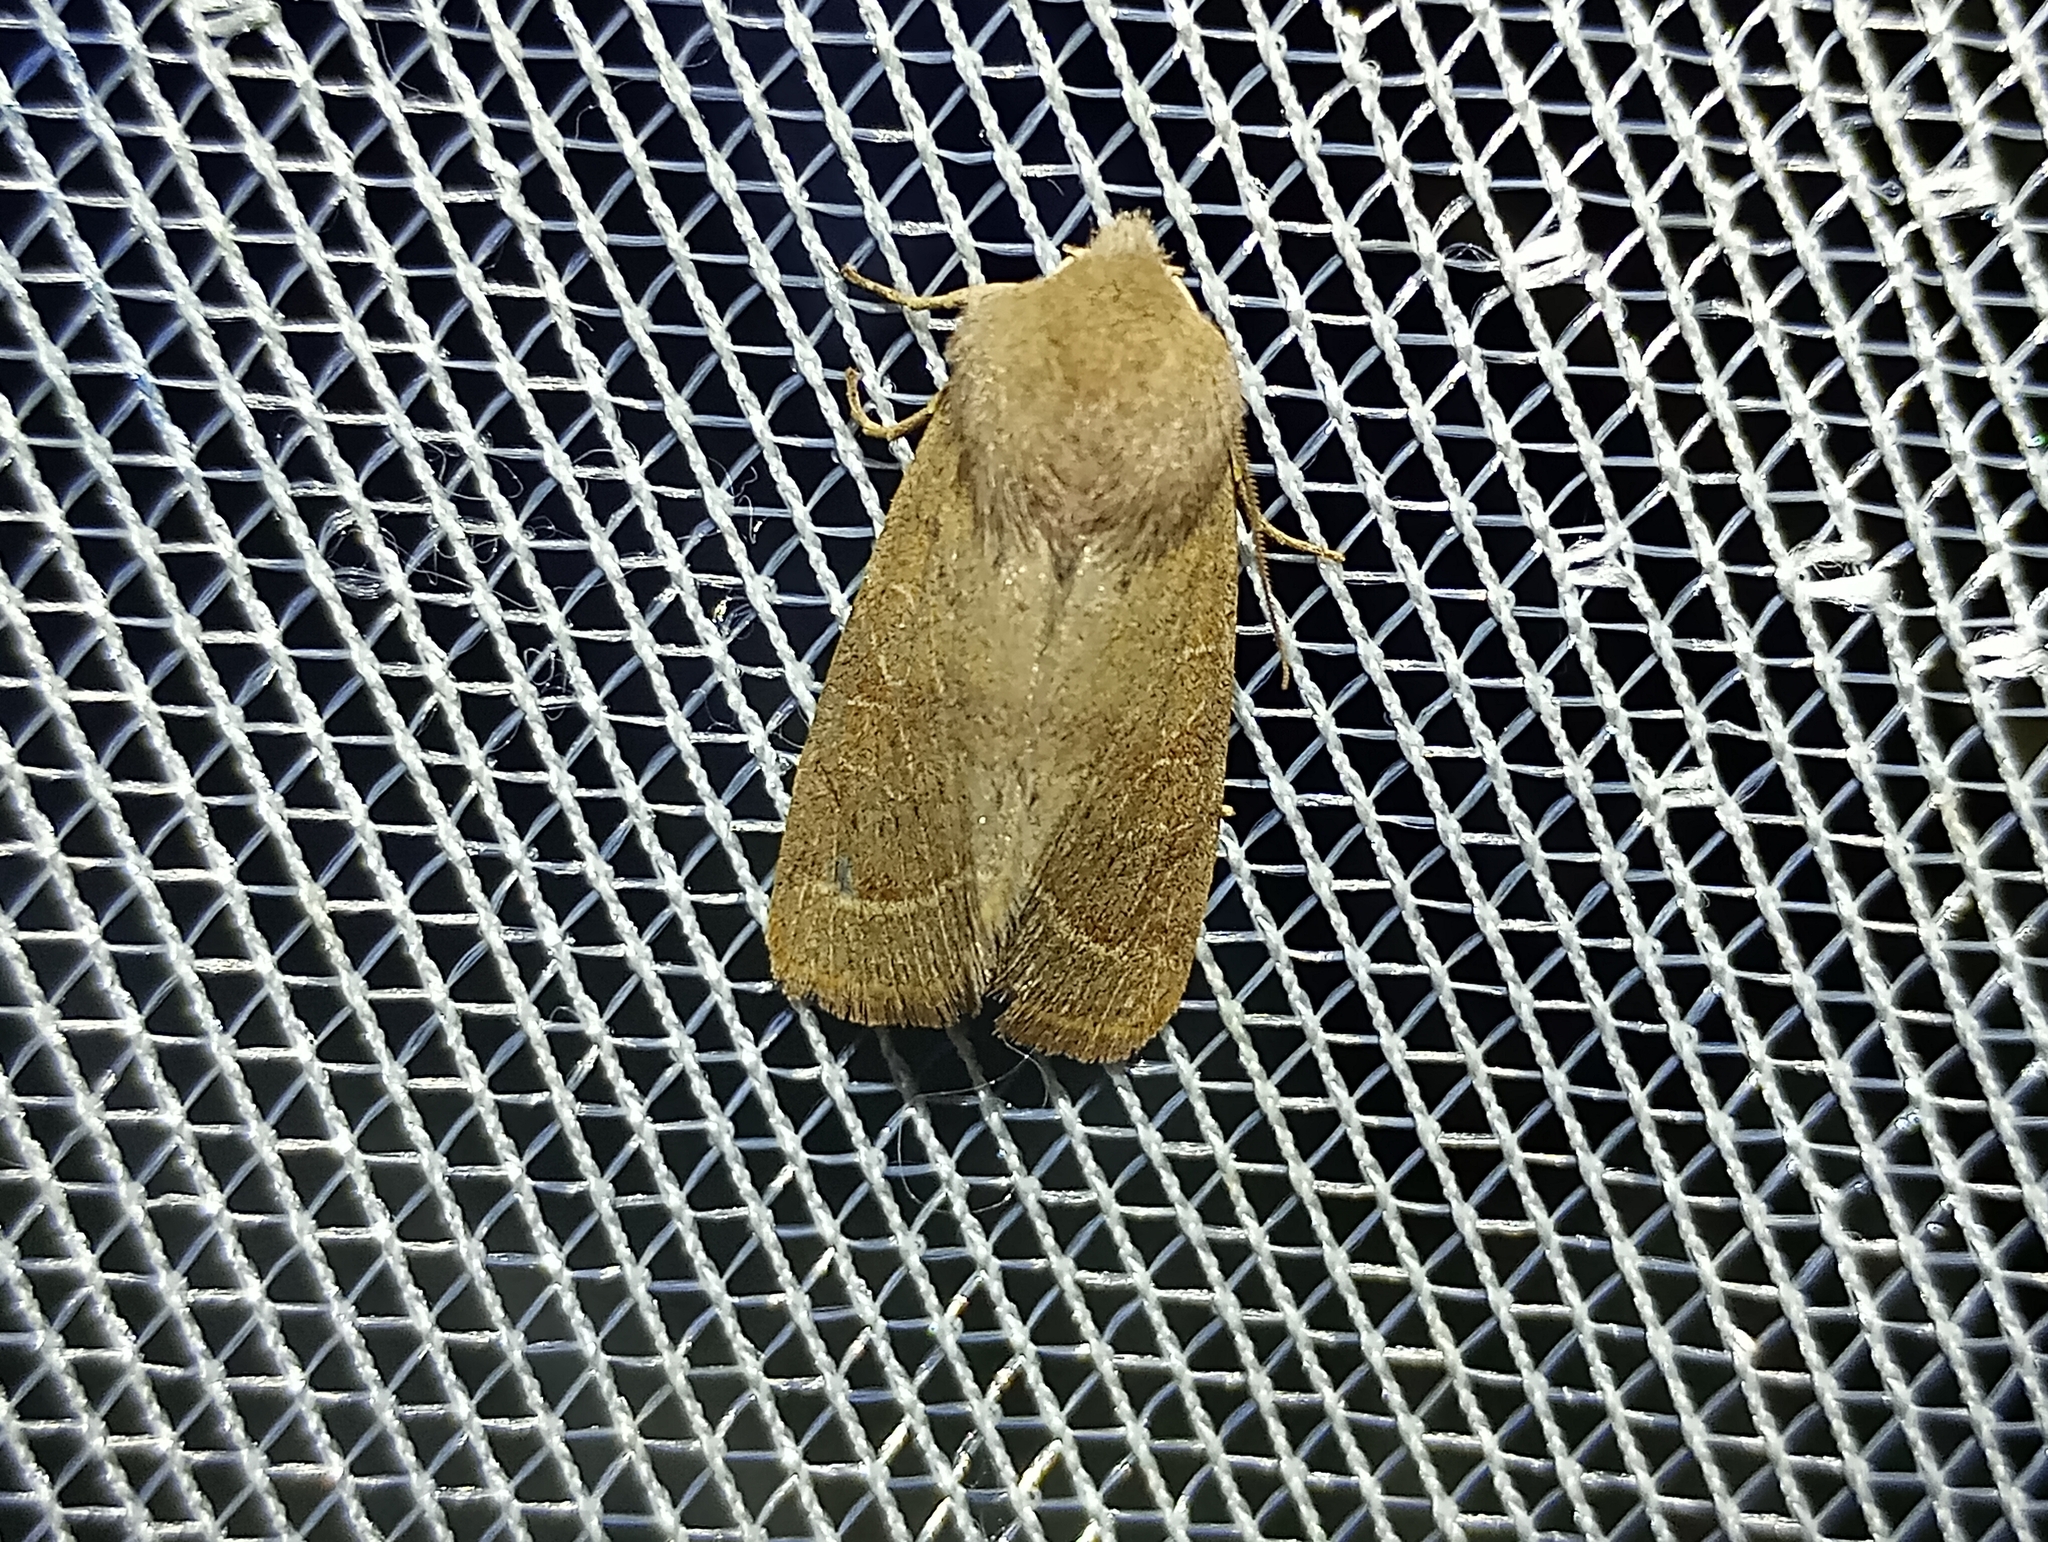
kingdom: Animalia
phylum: Arthropoda
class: Insecta
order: Lepidoptera
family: Noctuidae
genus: Orthosia
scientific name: Orthosia cerasi
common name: Common quaker
